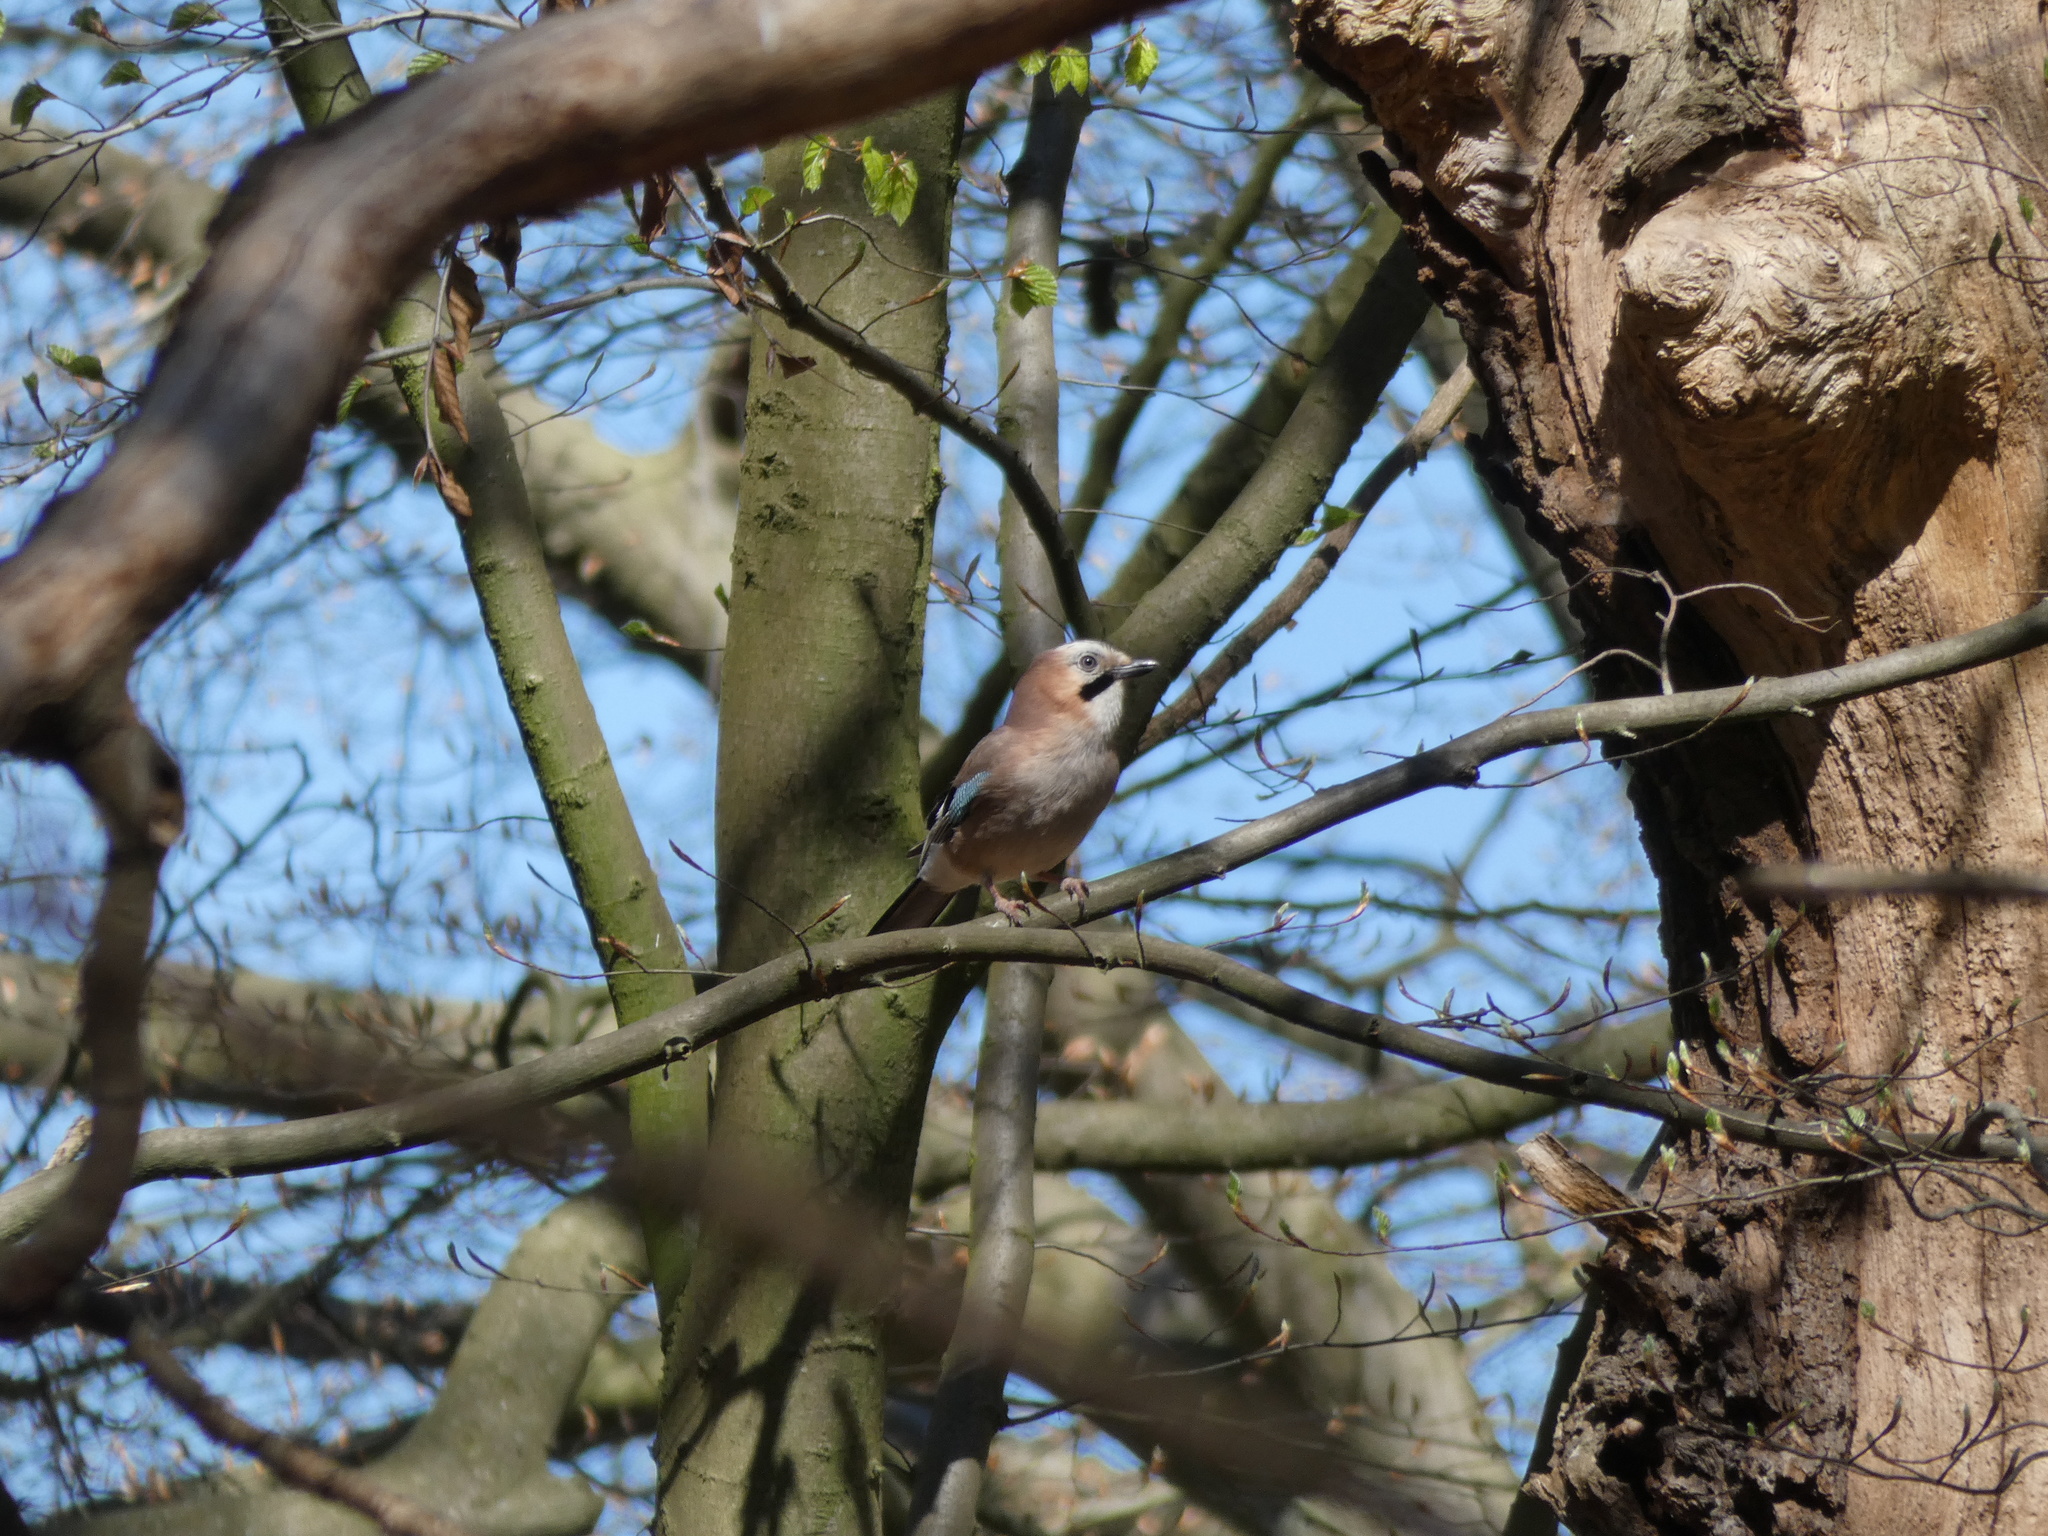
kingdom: Animalia
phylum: Chordata
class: Aves
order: Passeriformes
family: Corvidae
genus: Garrulus
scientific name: Garrulus glandarius
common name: Eurasian jay
